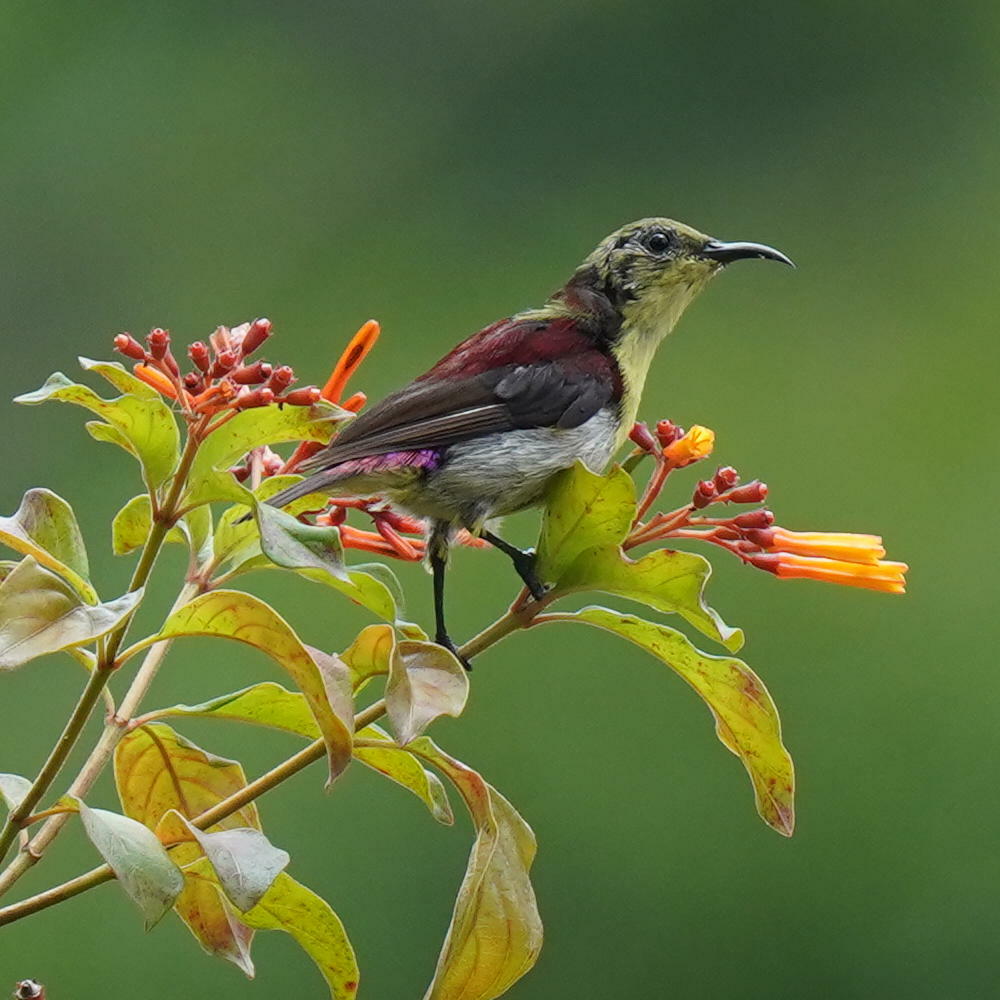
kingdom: Animalia
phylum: Chordata
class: Aves
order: Passeriformes
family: Nectariniidae
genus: Leptocoma
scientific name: Leptocoma minima
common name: Crimson-backed sunbird
